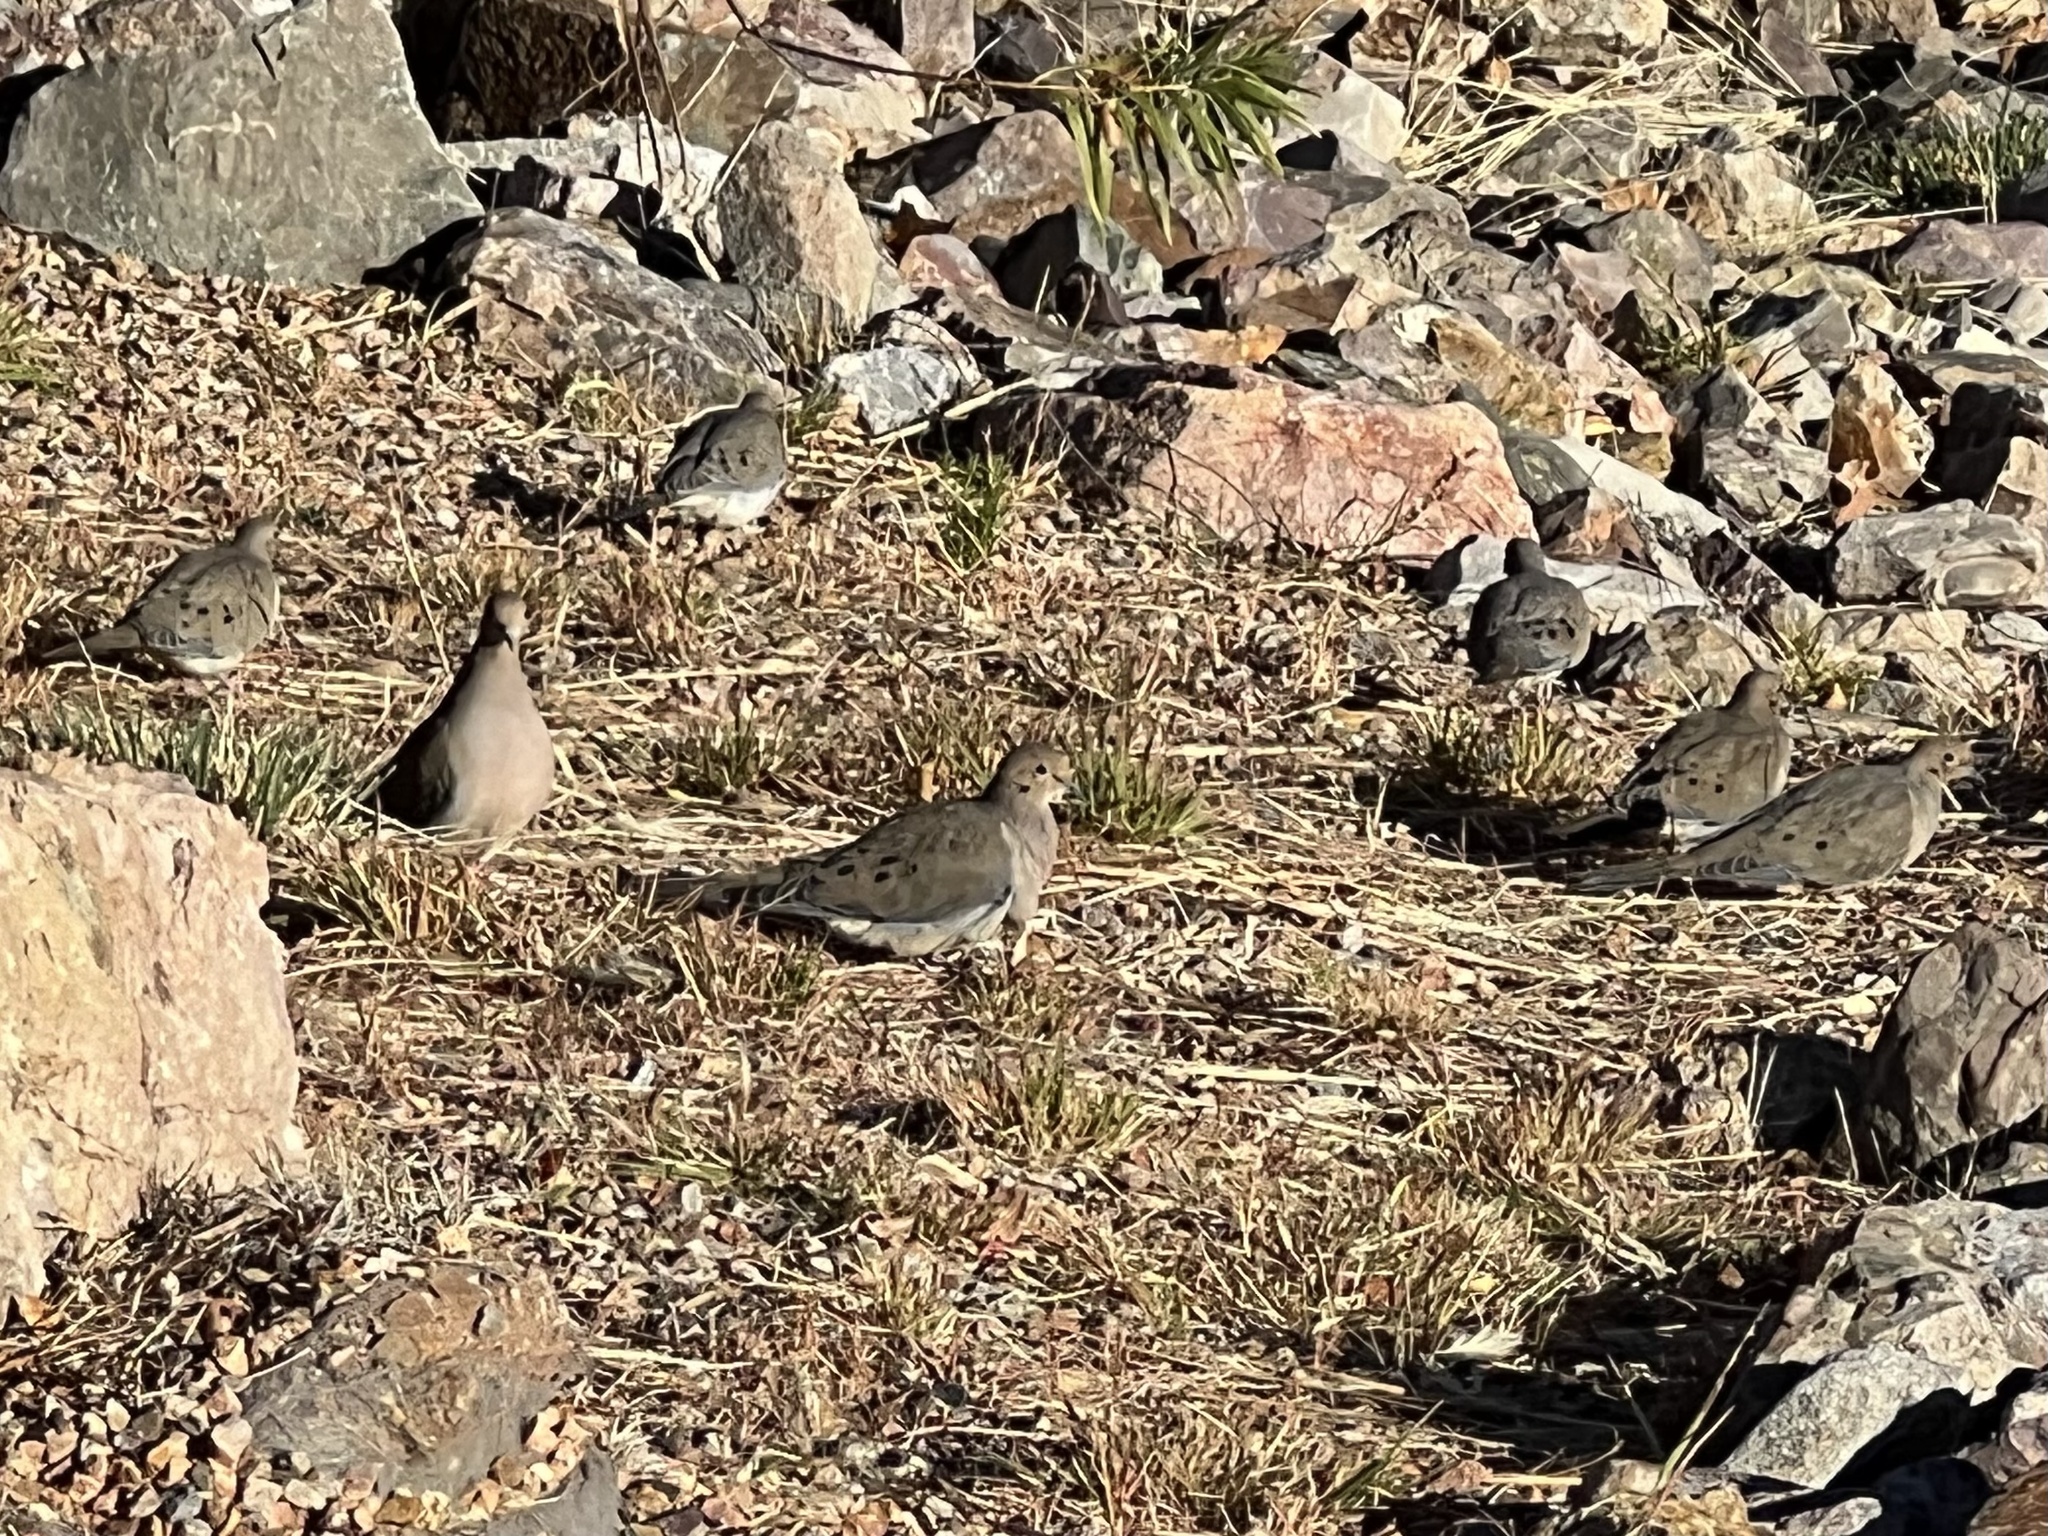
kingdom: Animalia
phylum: Chordata
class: Aves
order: Columbiformes
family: Columbidae
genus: Zenaida
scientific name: Zenaida macroura
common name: Mourning dove
